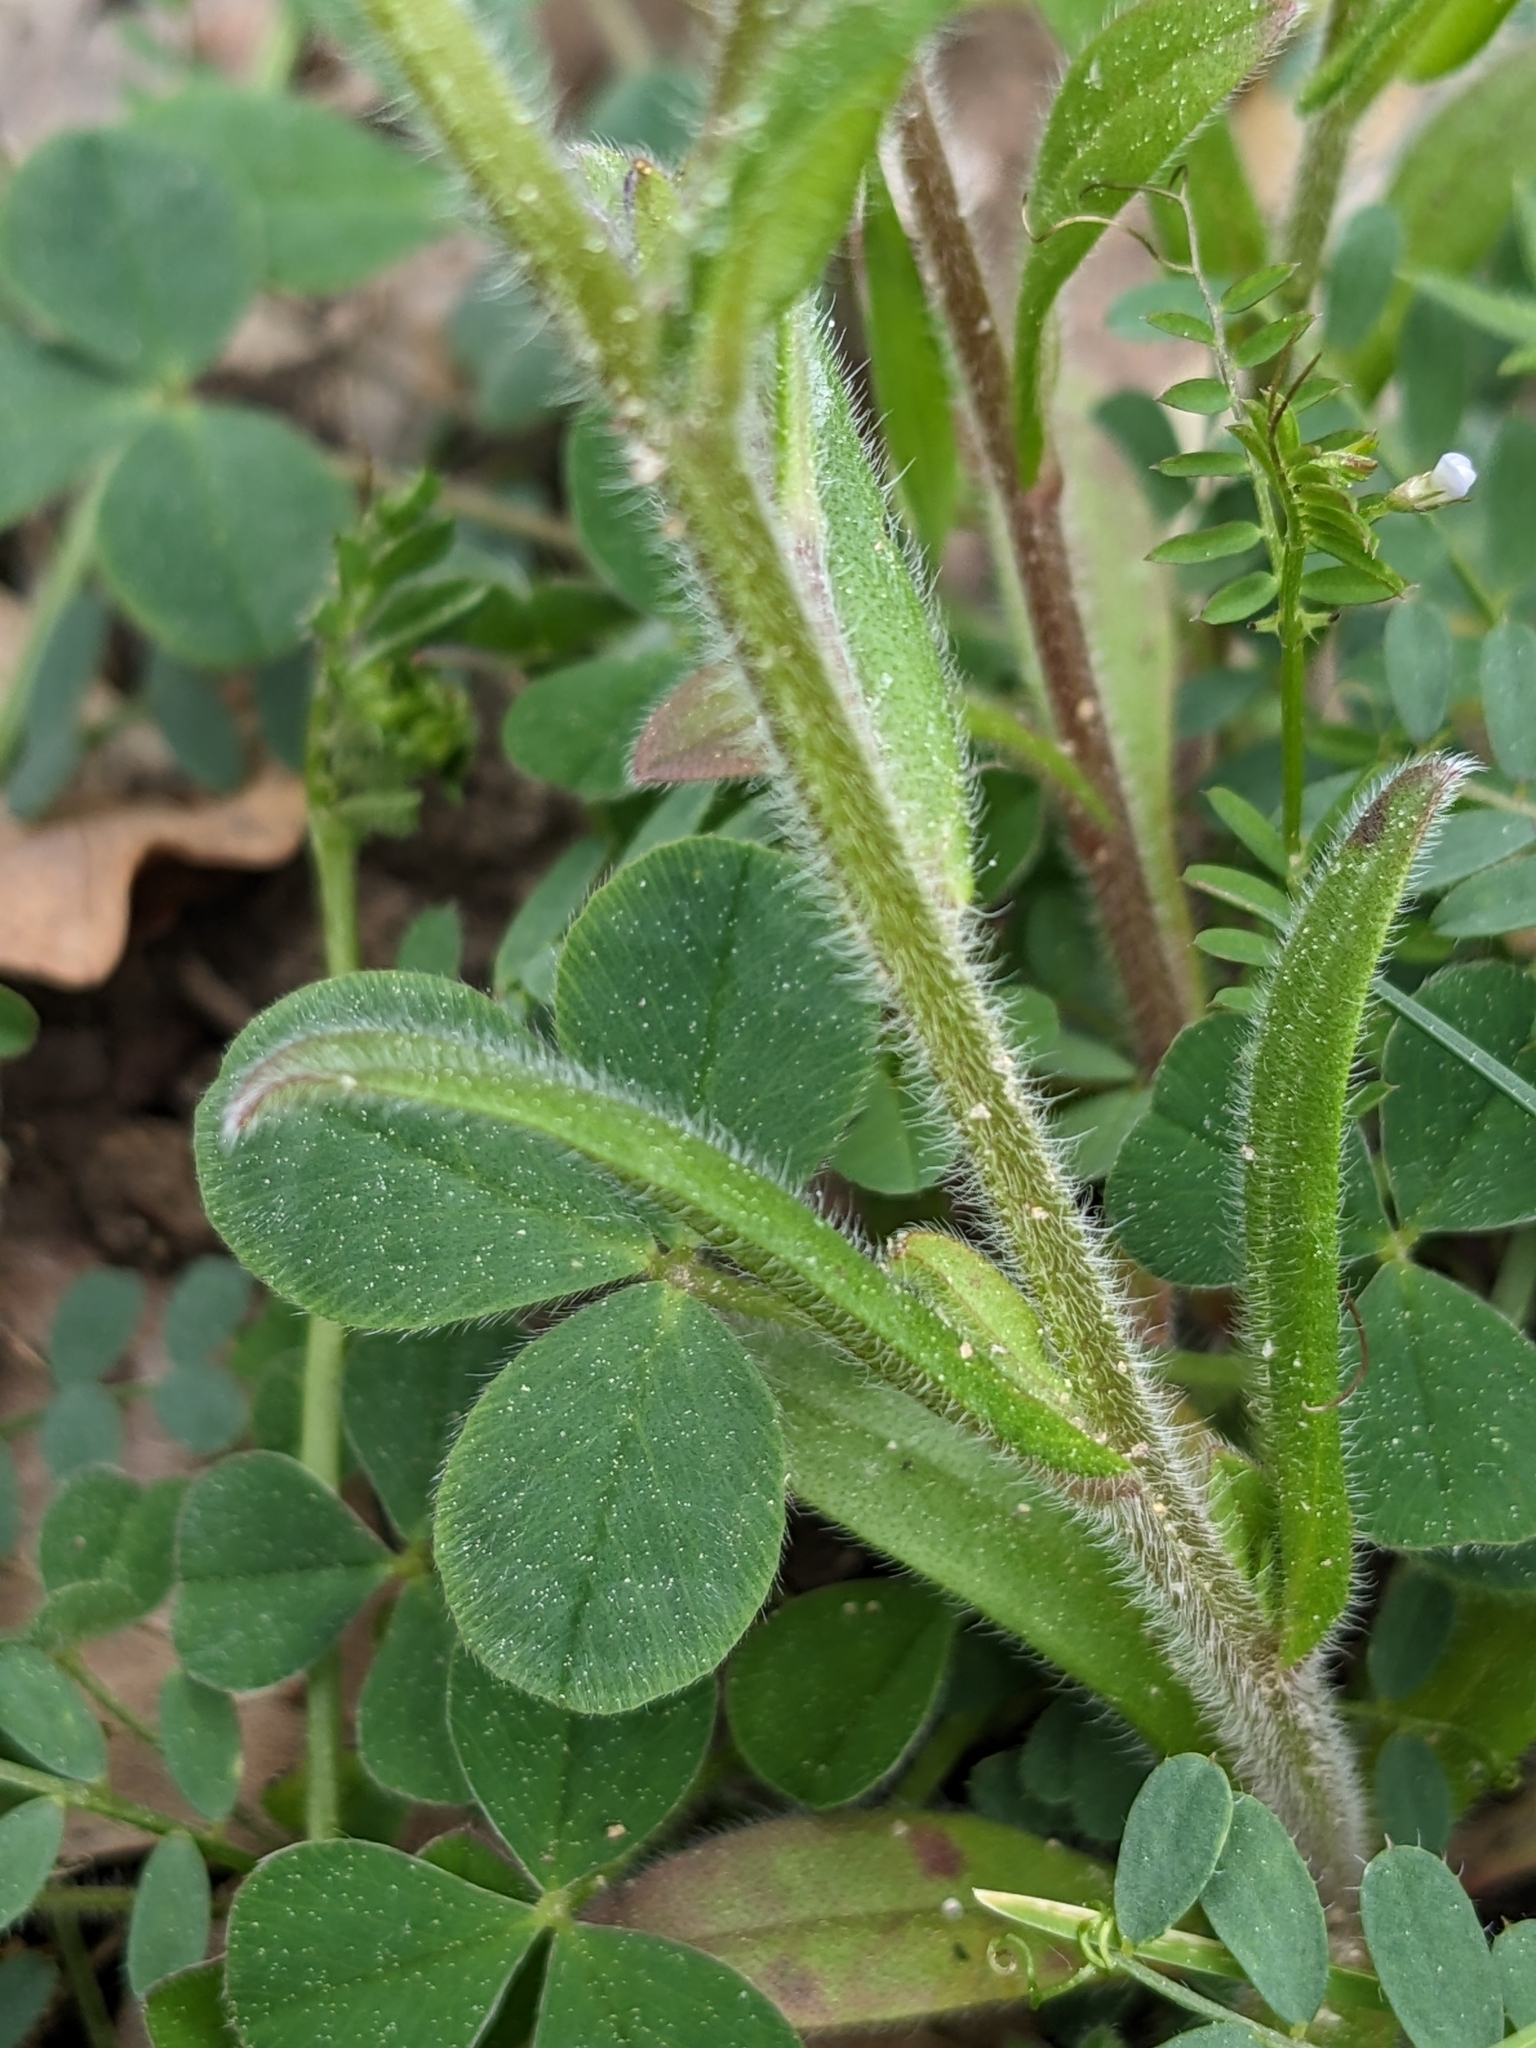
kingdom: Plantae
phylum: Tracheophyta
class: Magnoliopsida
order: Boraginales
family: Boraginaceae
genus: Myosotis
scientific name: Myosotis arvensis
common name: Field forget-me-not
